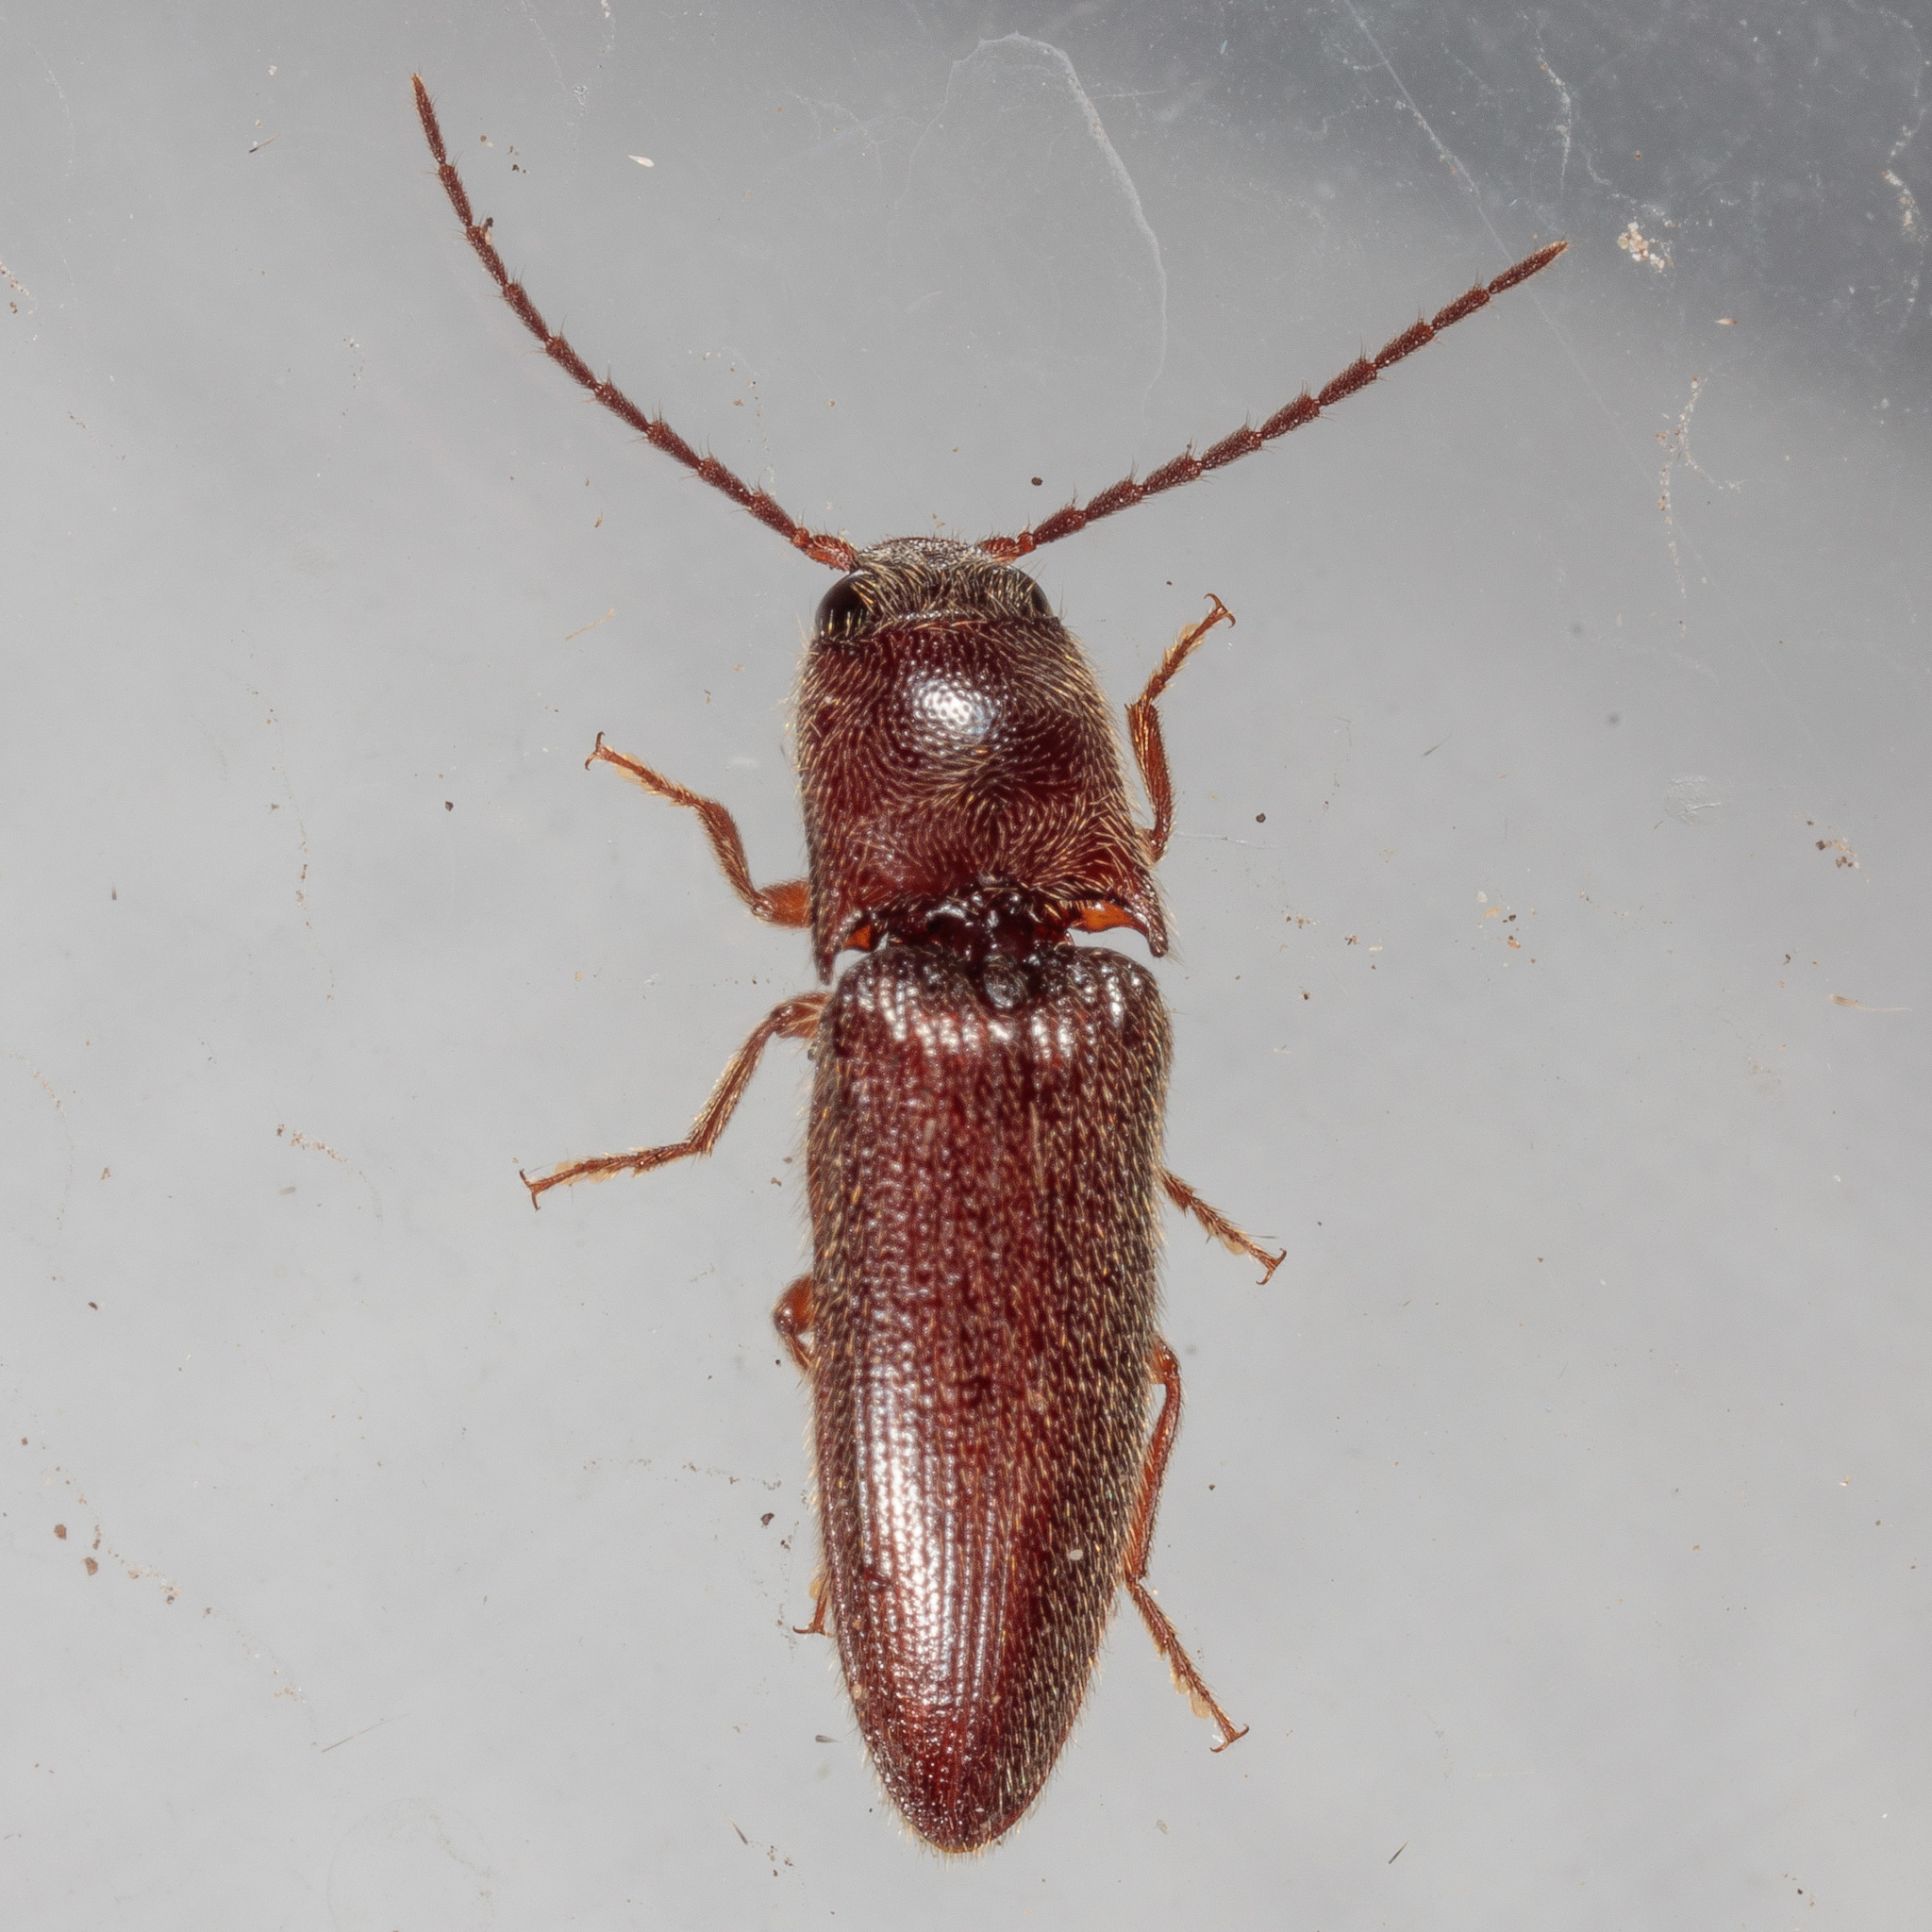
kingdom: Animalia
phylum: Arthropoda
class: Insecta
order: Coleoptera
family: Elateridae
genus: Dipropus
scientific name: Dipropus
